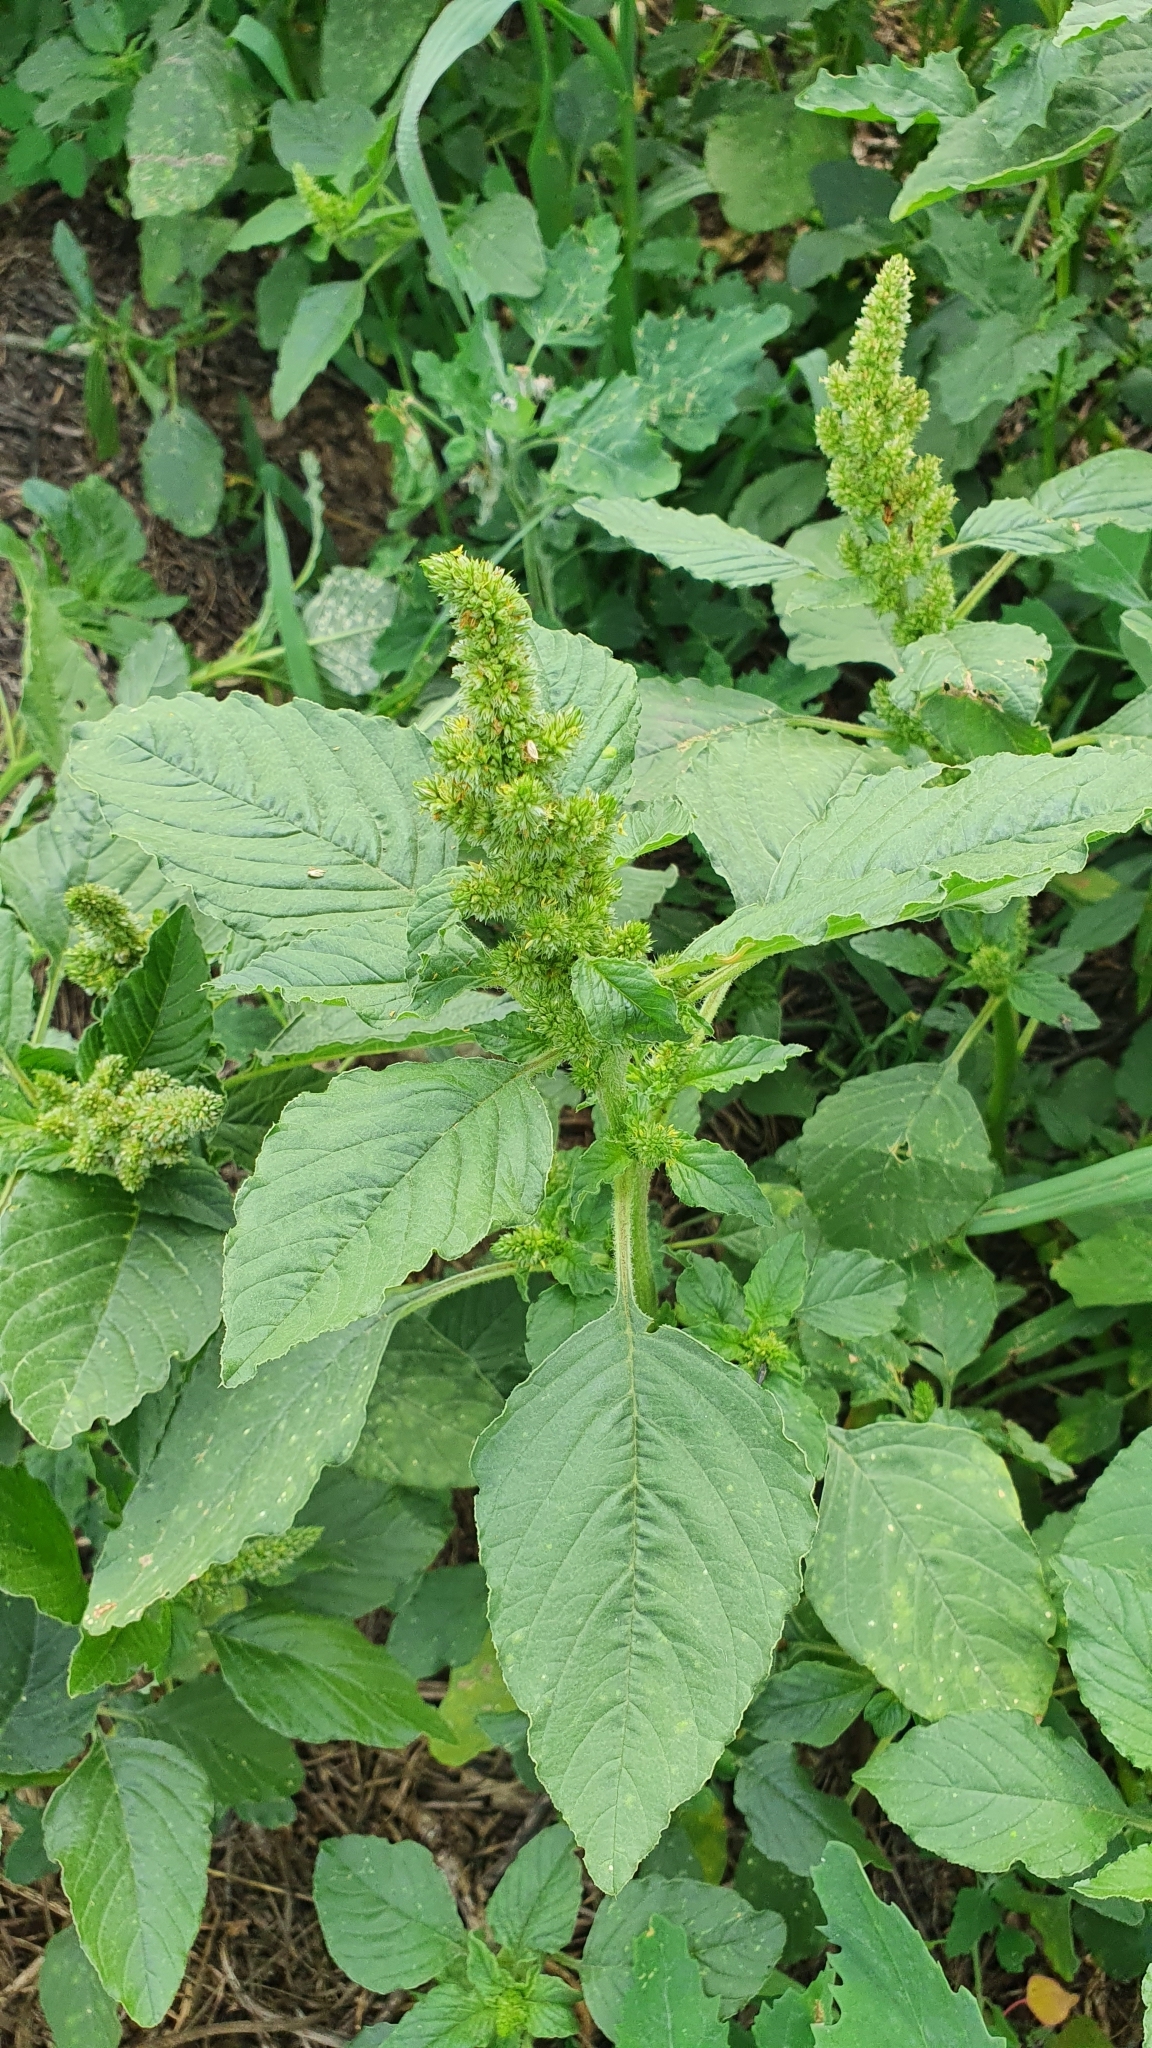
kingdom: Plantae
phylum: Tracheophyta
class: Magnoliopsida
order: Caryophyllales
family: Amaranthaceae
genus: Amaranthus
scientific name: Amaranthus retroflexus
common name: Redroot amaranth
